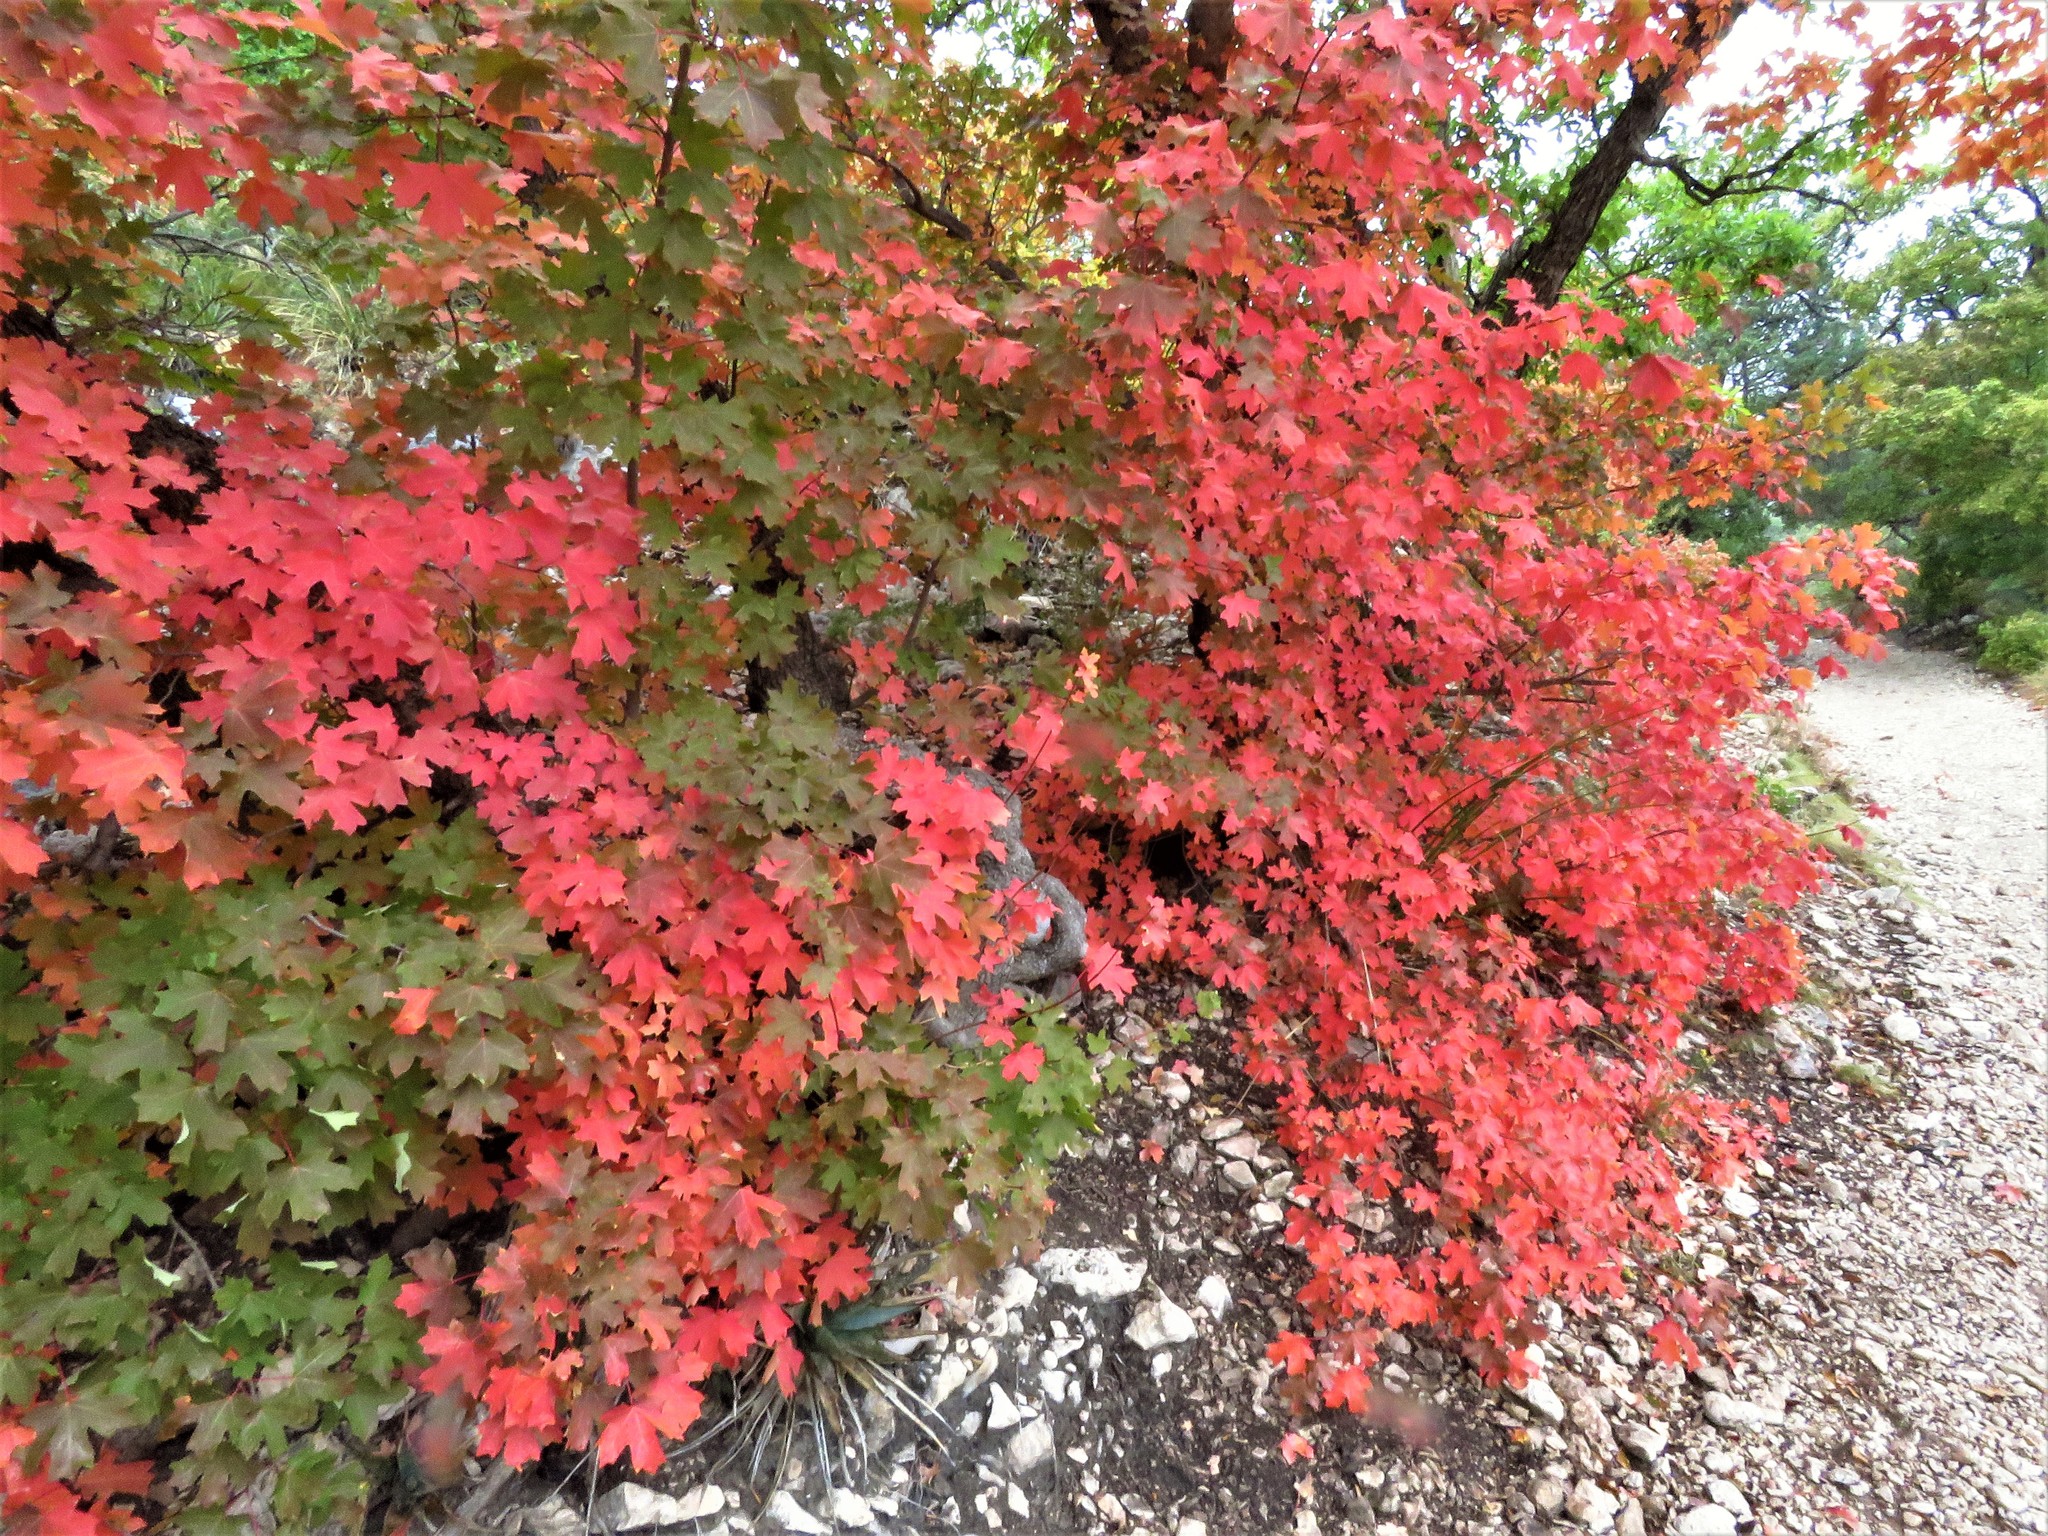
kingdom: Plantae
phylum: Tracheophyta
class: Magnoliopsida
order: Sapindales
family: Sapindaceae
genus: Acer
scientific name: Acer grandidentatum
